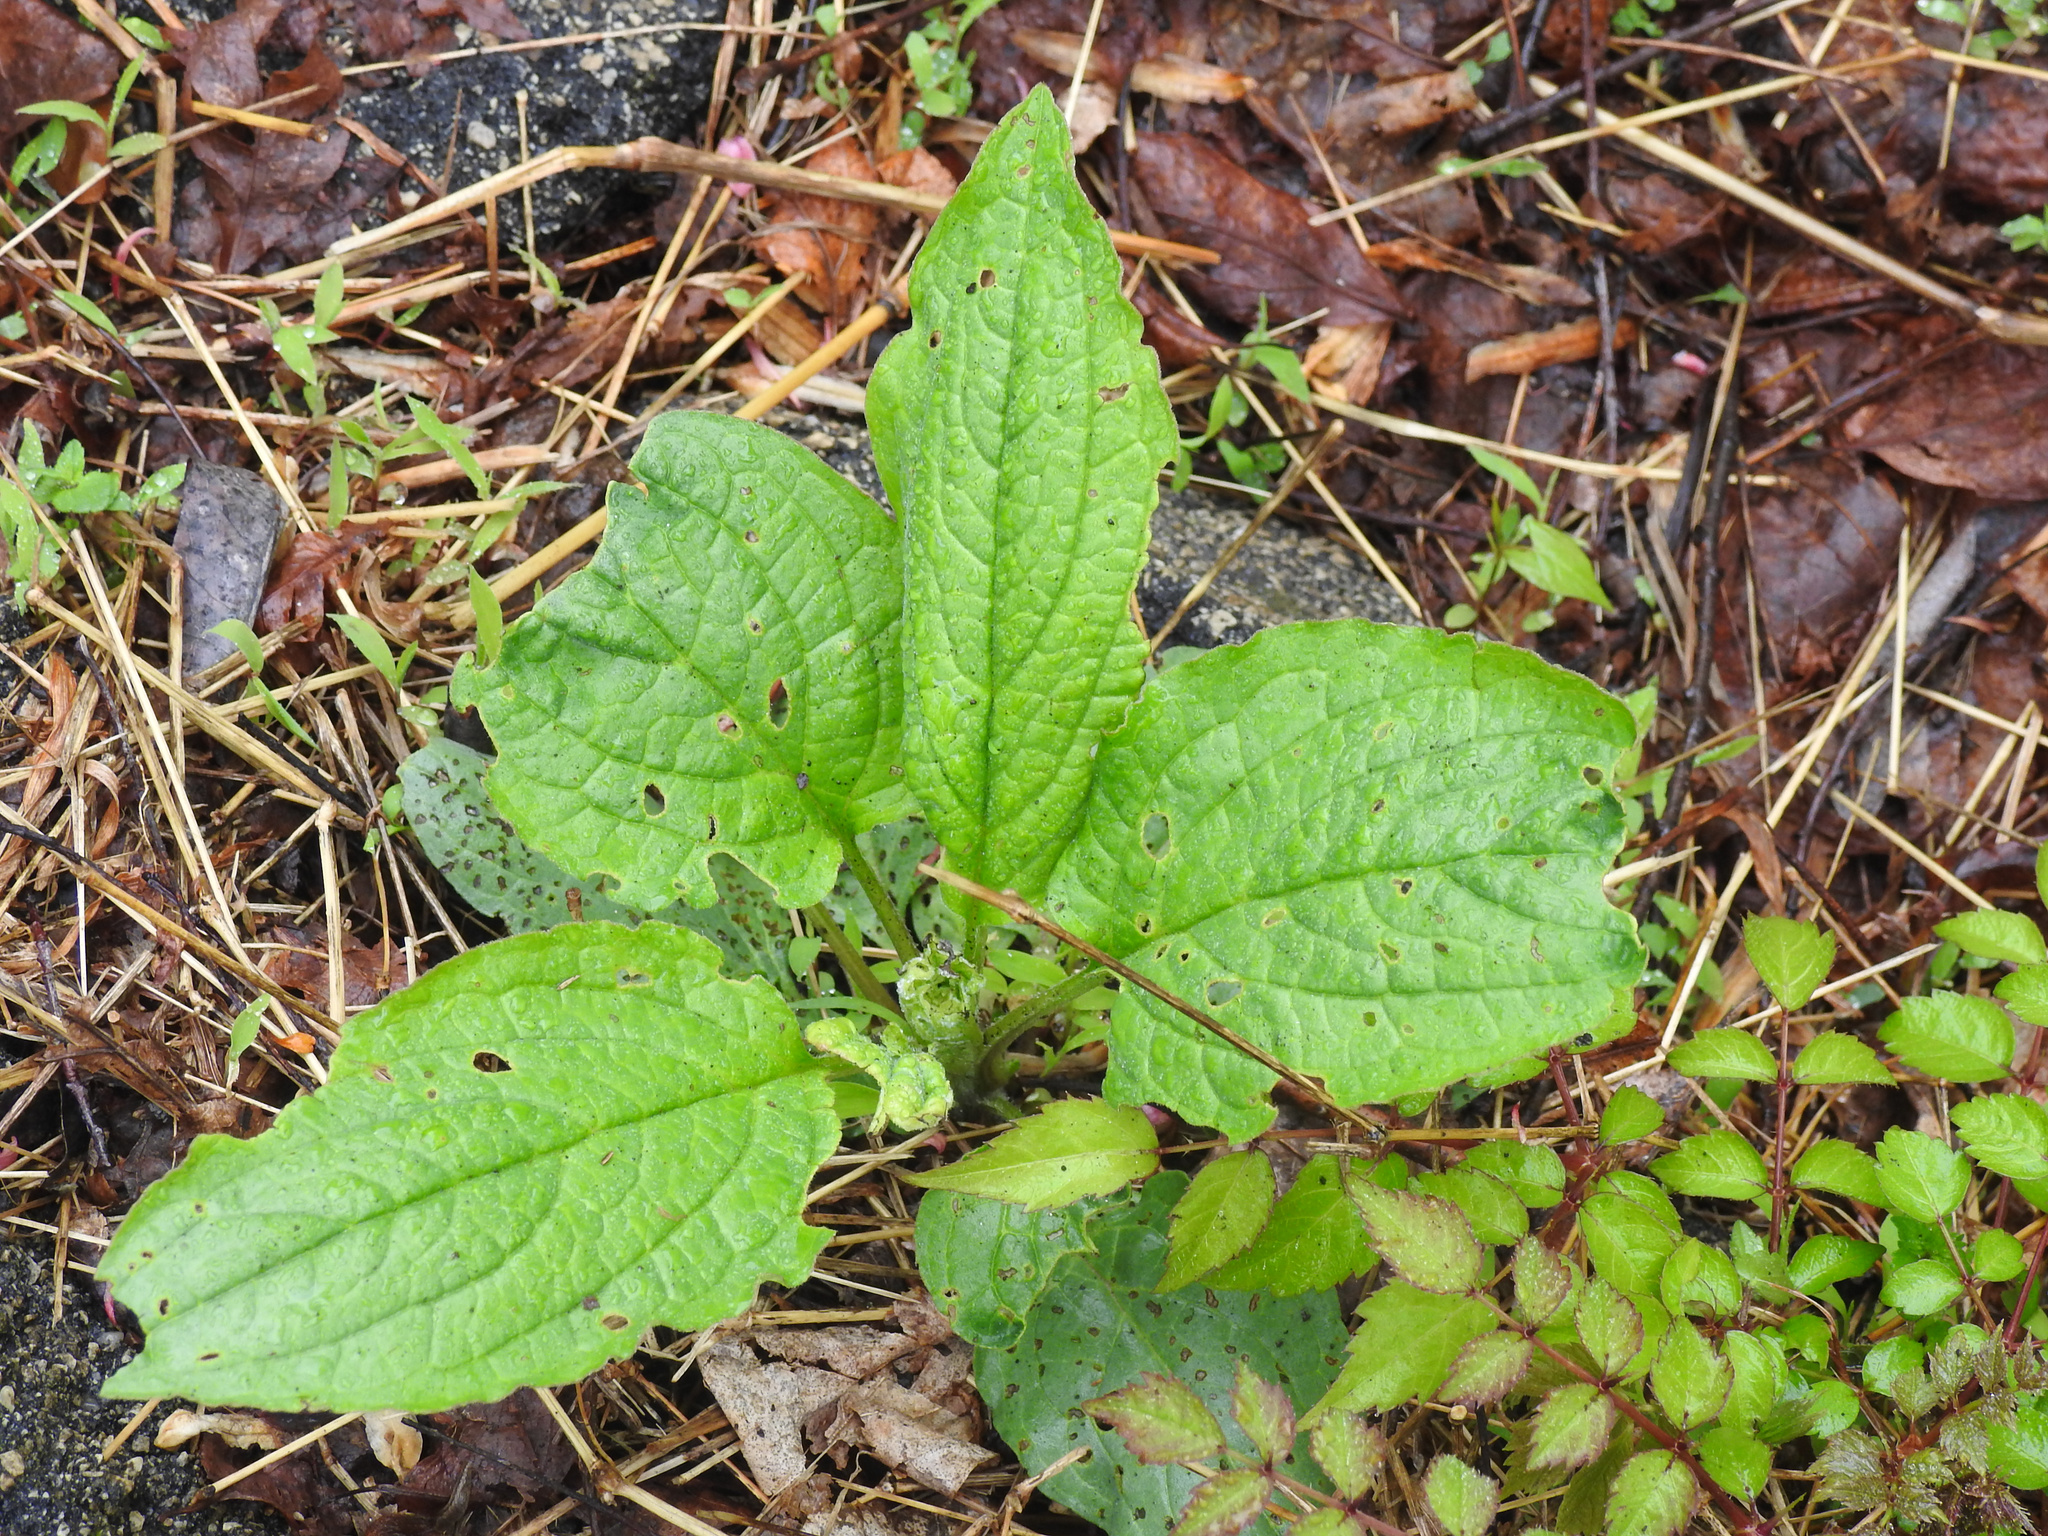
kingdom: Plantae
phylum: Tracheophyta
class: Magnoliopsida
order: Boraginales
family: Boraginaceae
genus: Hackelia
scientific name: Hackelia virginiana
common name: Beggar's-lice
